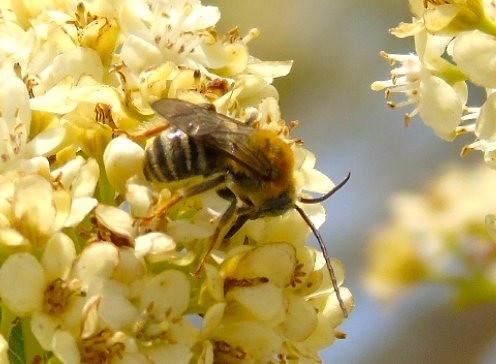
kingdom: Animalia
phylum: Arthropoda
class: Insecta
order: Hymenoptera
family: Apidae
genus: Melissodes
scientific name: Melissodes
